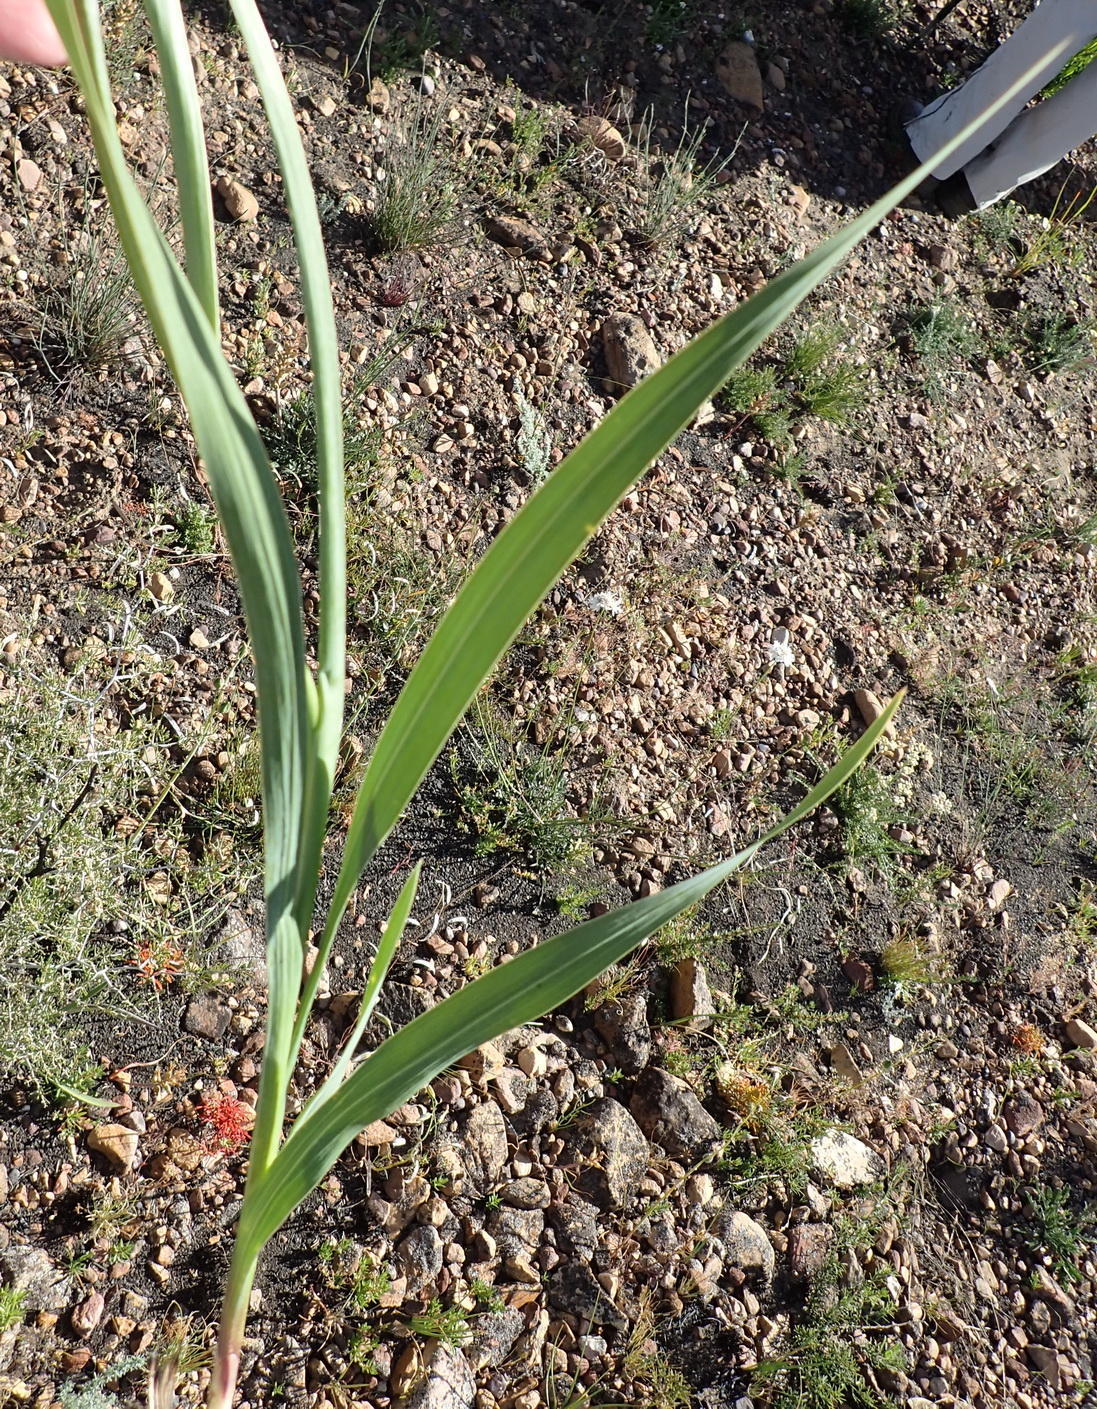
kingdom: Plantae
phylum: Tracheophyta
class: Liliopsida
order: Asparagales
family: Iridaceae
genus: Gladiolus
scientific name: Gladiolus floribundus
